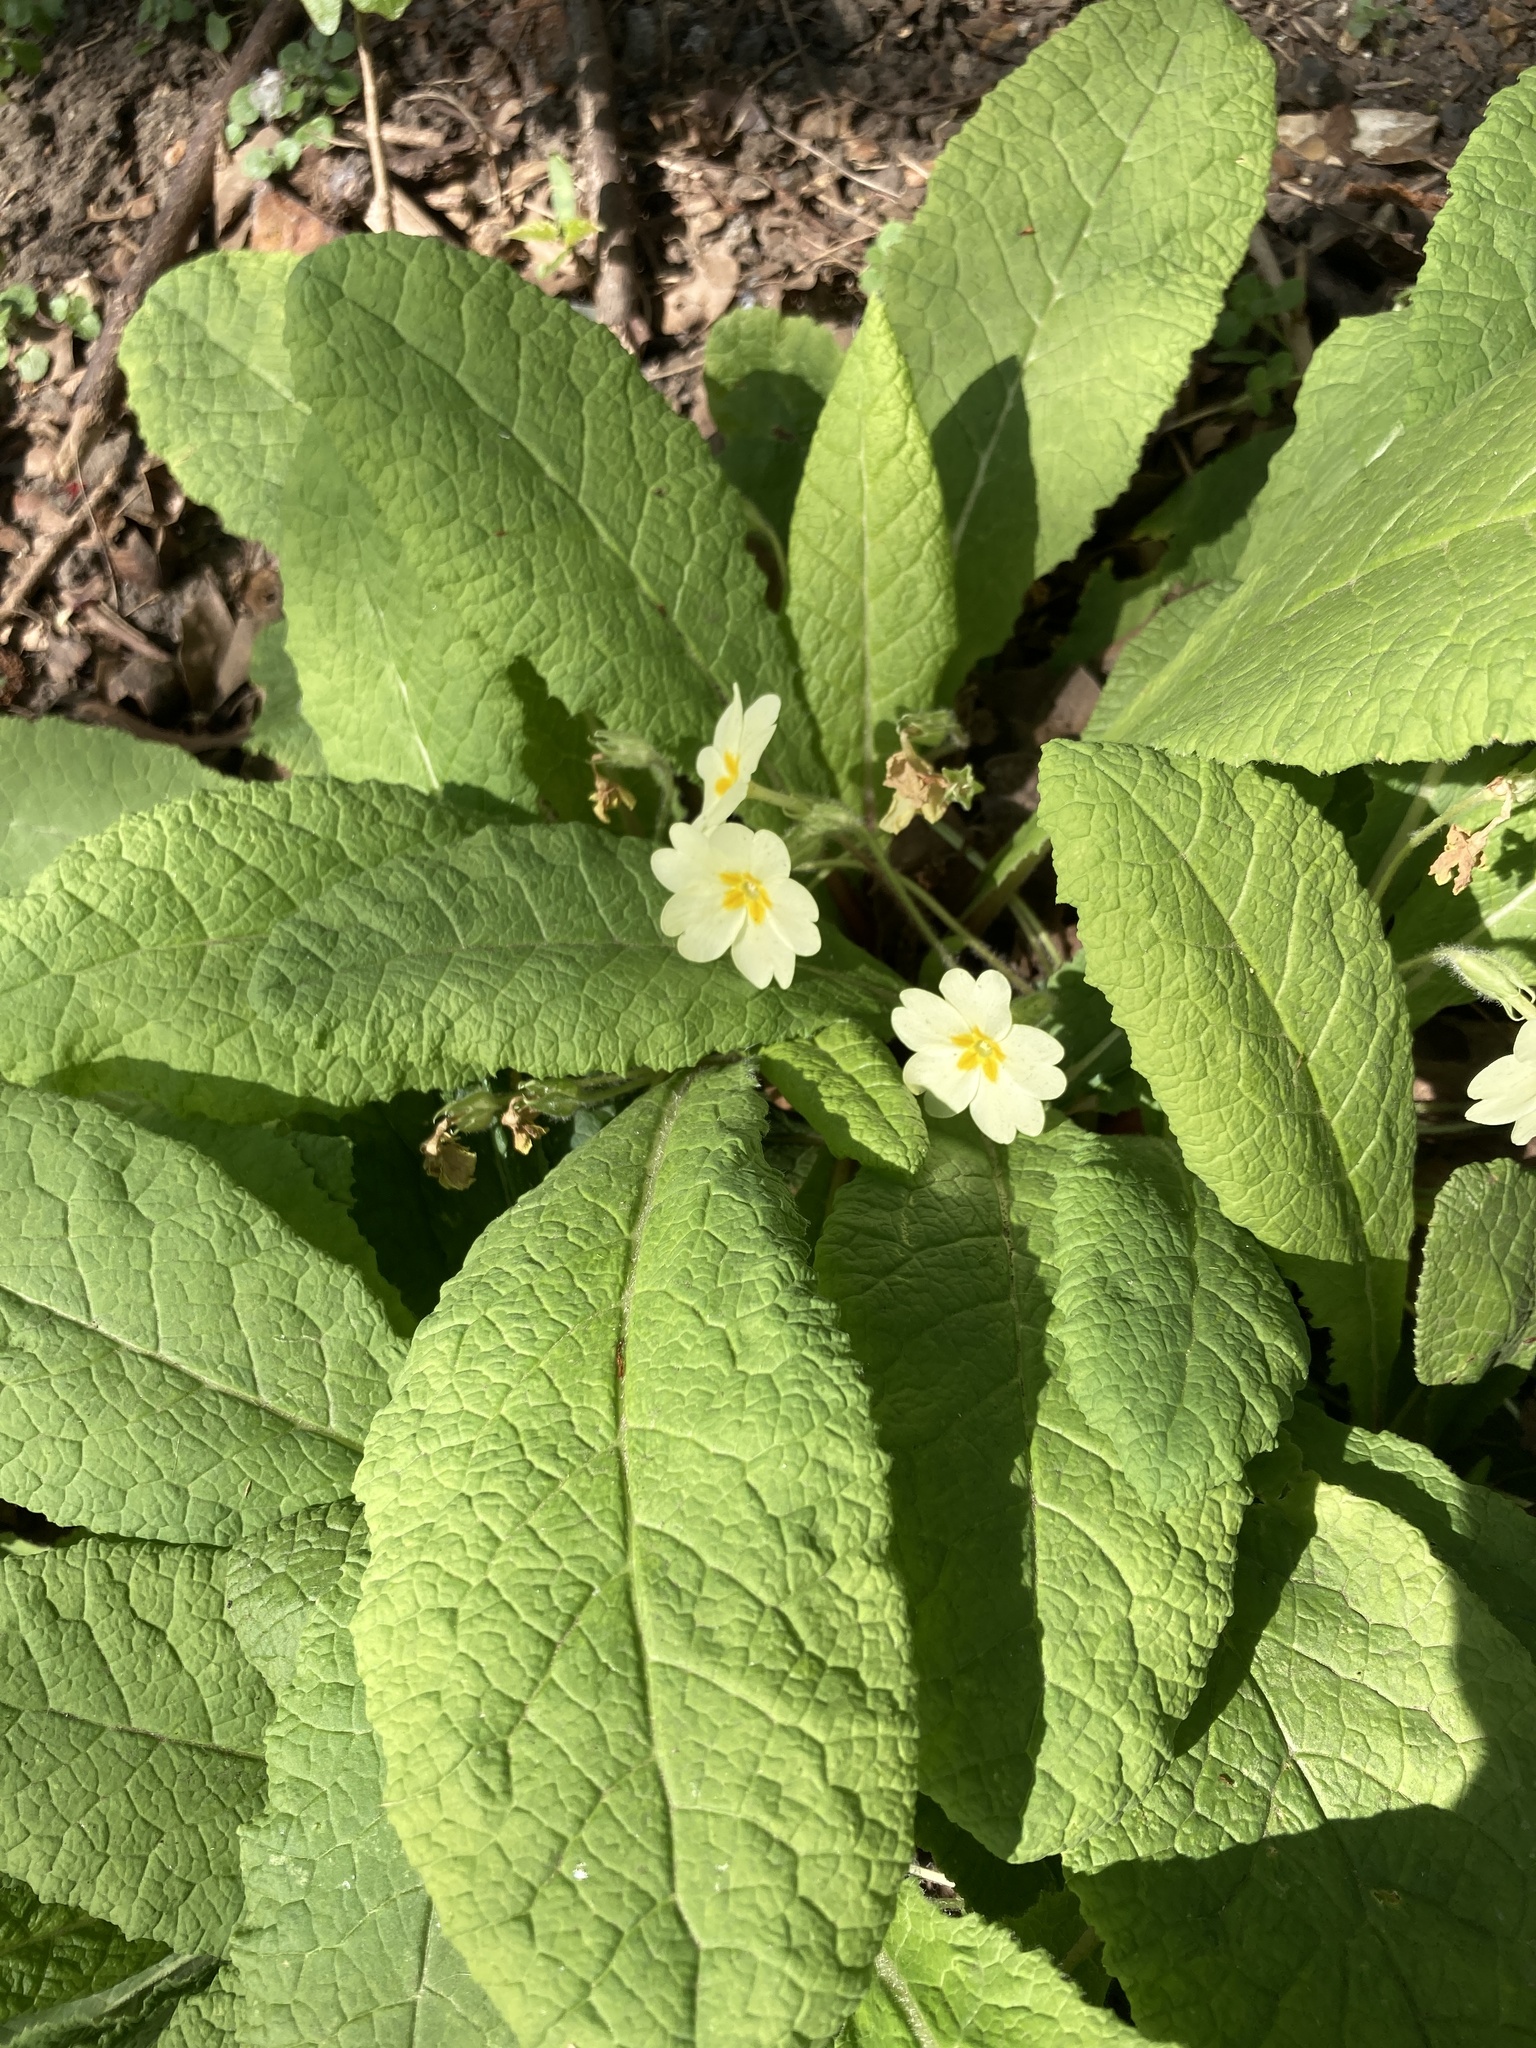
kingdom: Plantae
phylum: Tracheophyta
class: Magnoliopsida
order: Ericales
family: Primulaceae
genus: Primula
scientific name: Primula vulgaris
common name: Primrose
